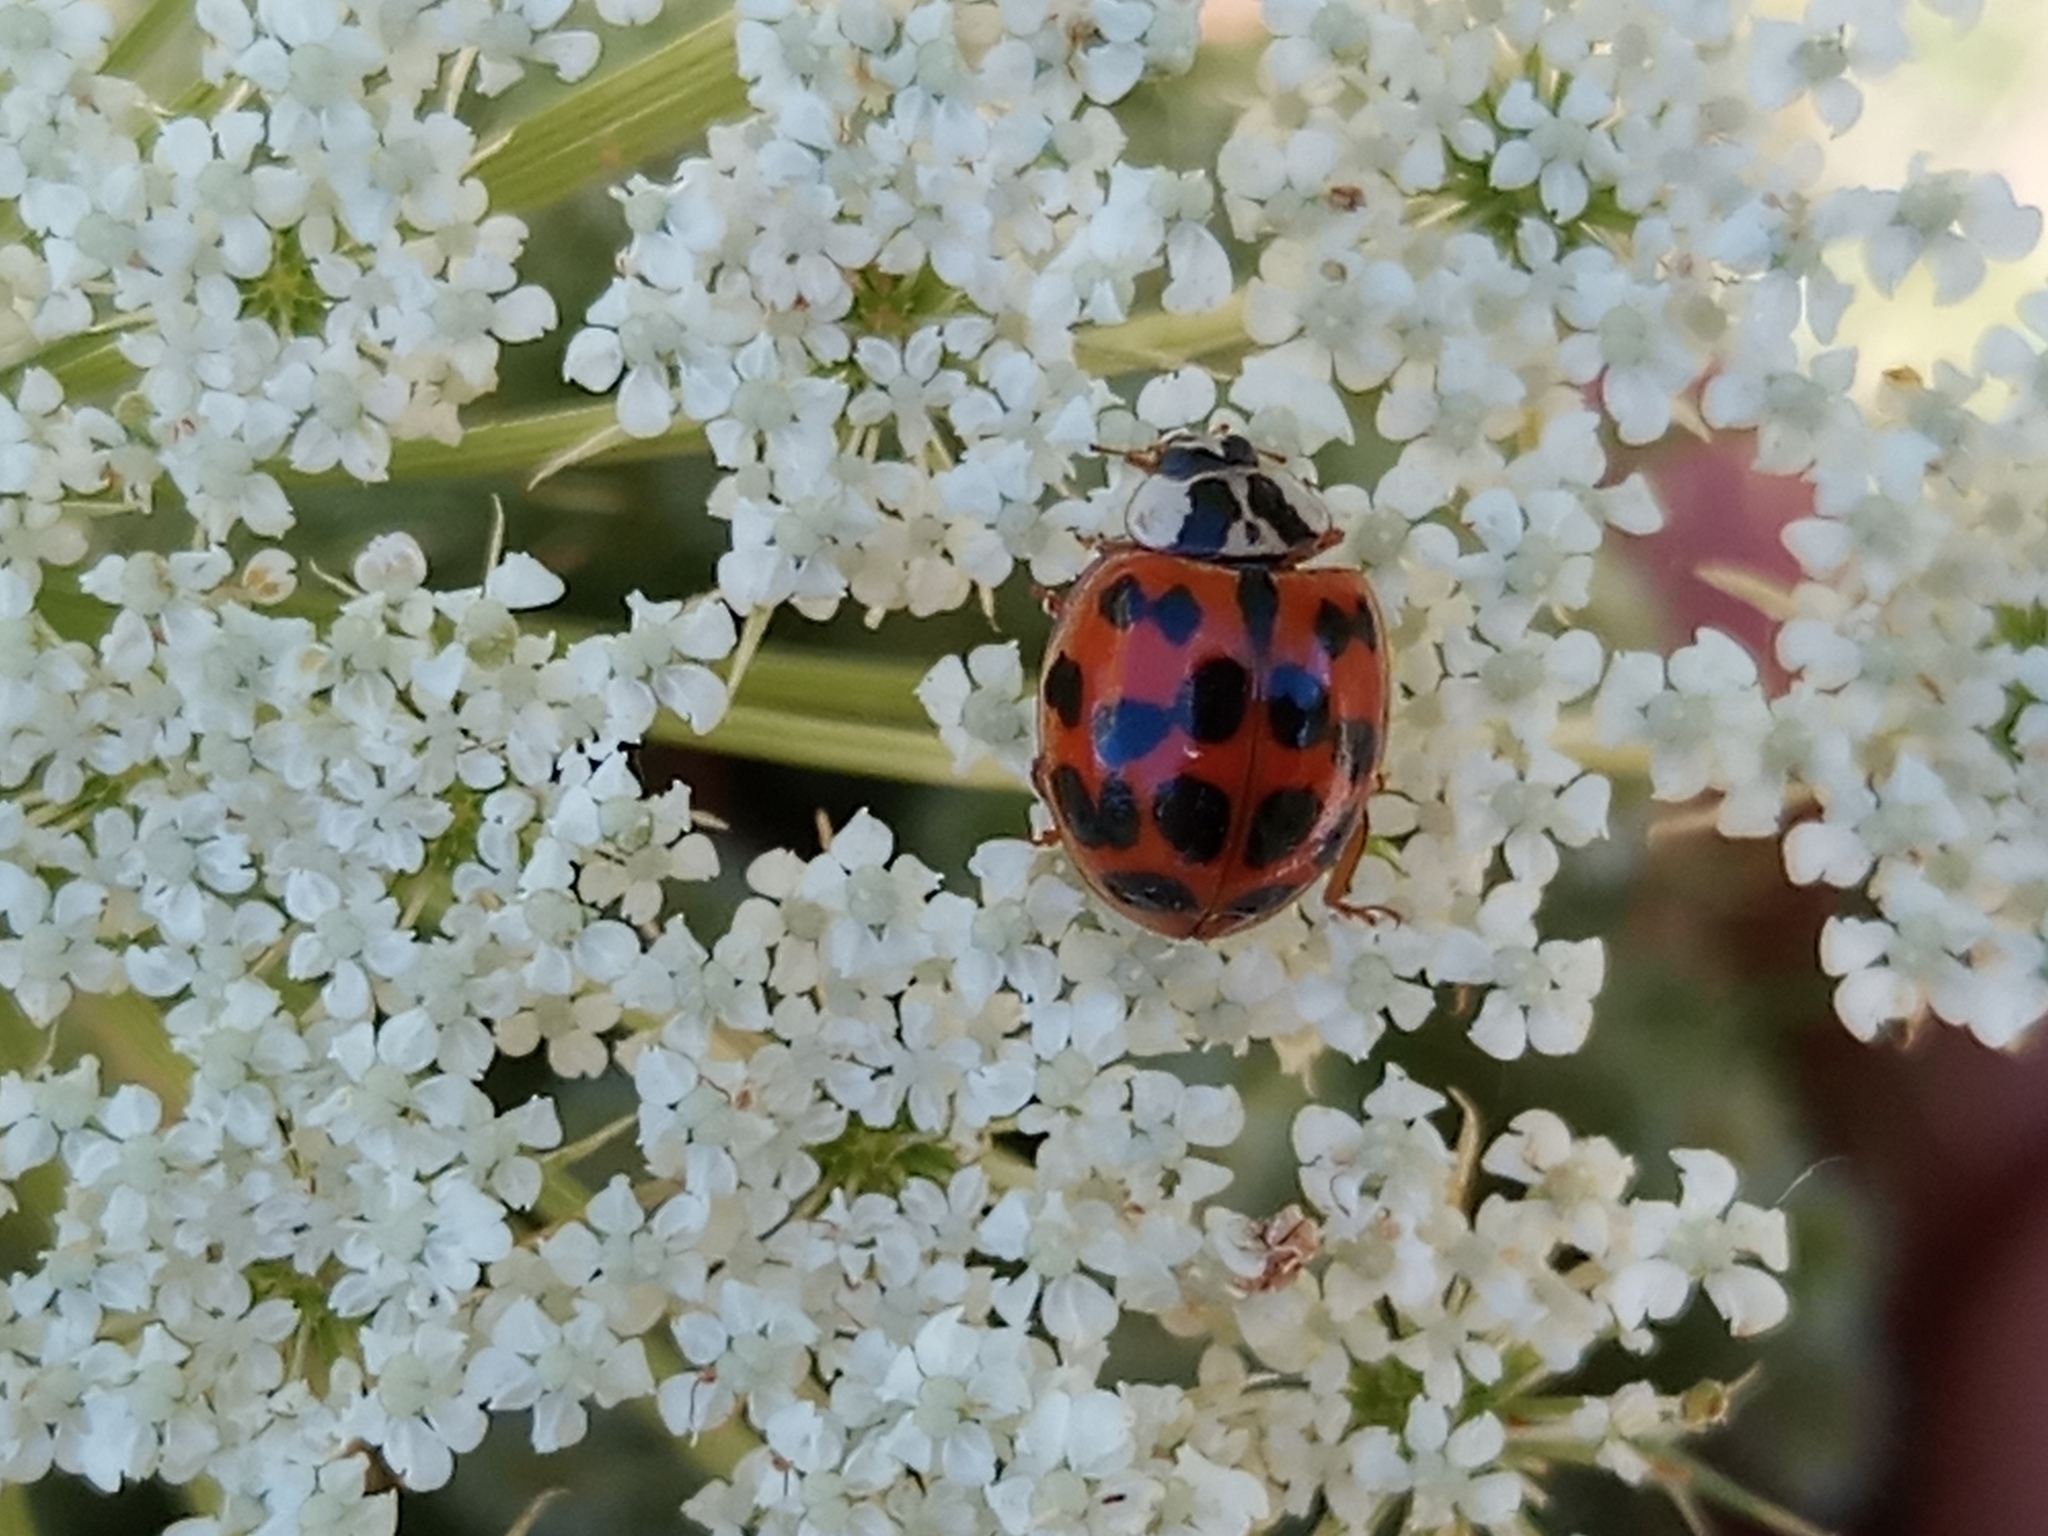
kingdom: Animalia
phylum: Arthropoda
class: Insecta
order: Coleoptera
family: Coccinellidae
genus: Harmonia
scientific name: Harmonia axyridis
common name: Harlequin ladybird
